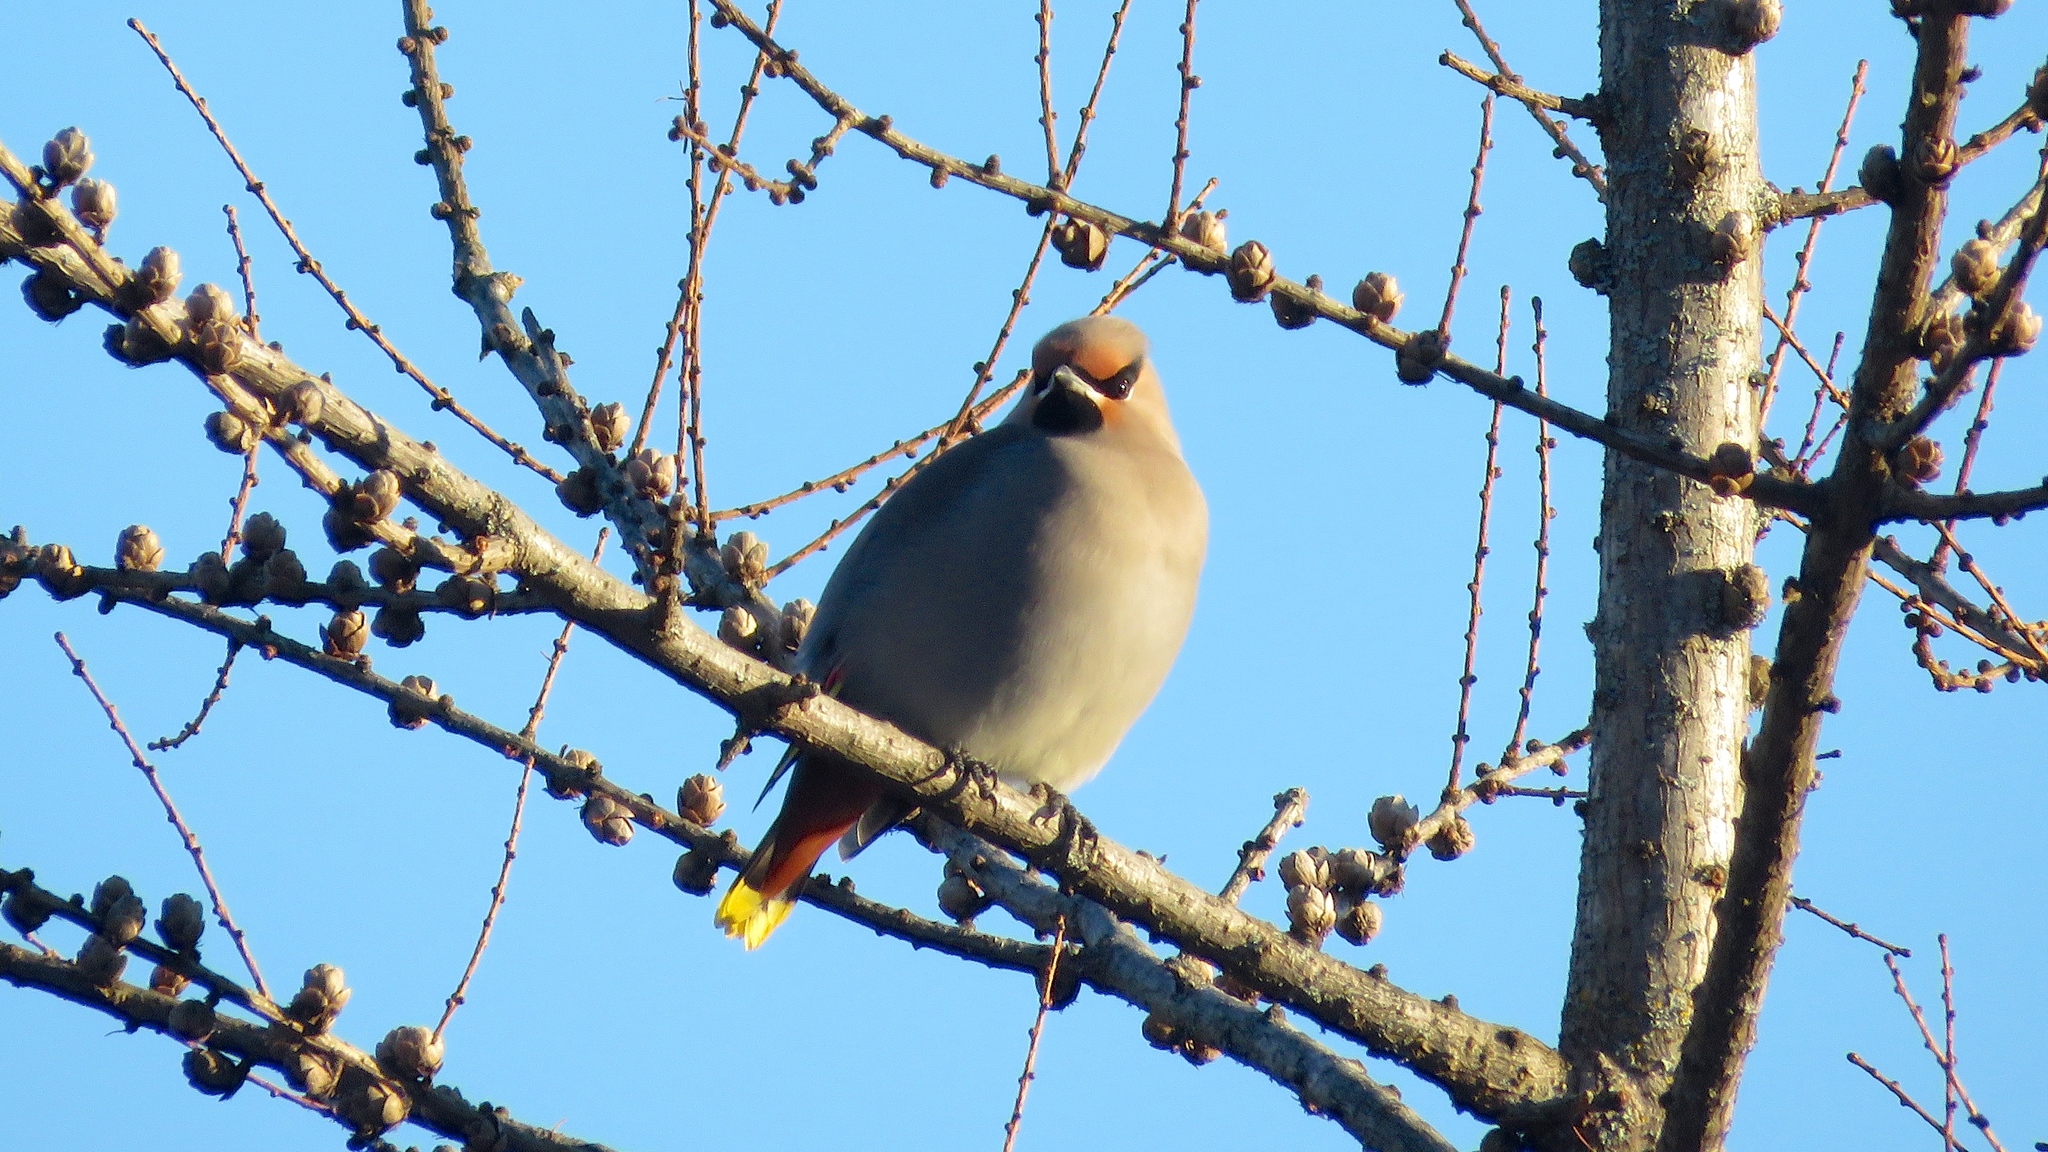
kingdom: Animalia
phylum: Chordata
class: Aves
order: Passeriformes
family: Bombycillidae
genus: Bombycilla
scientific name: Bombycilla garrulus
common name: Bohemian waxwing
